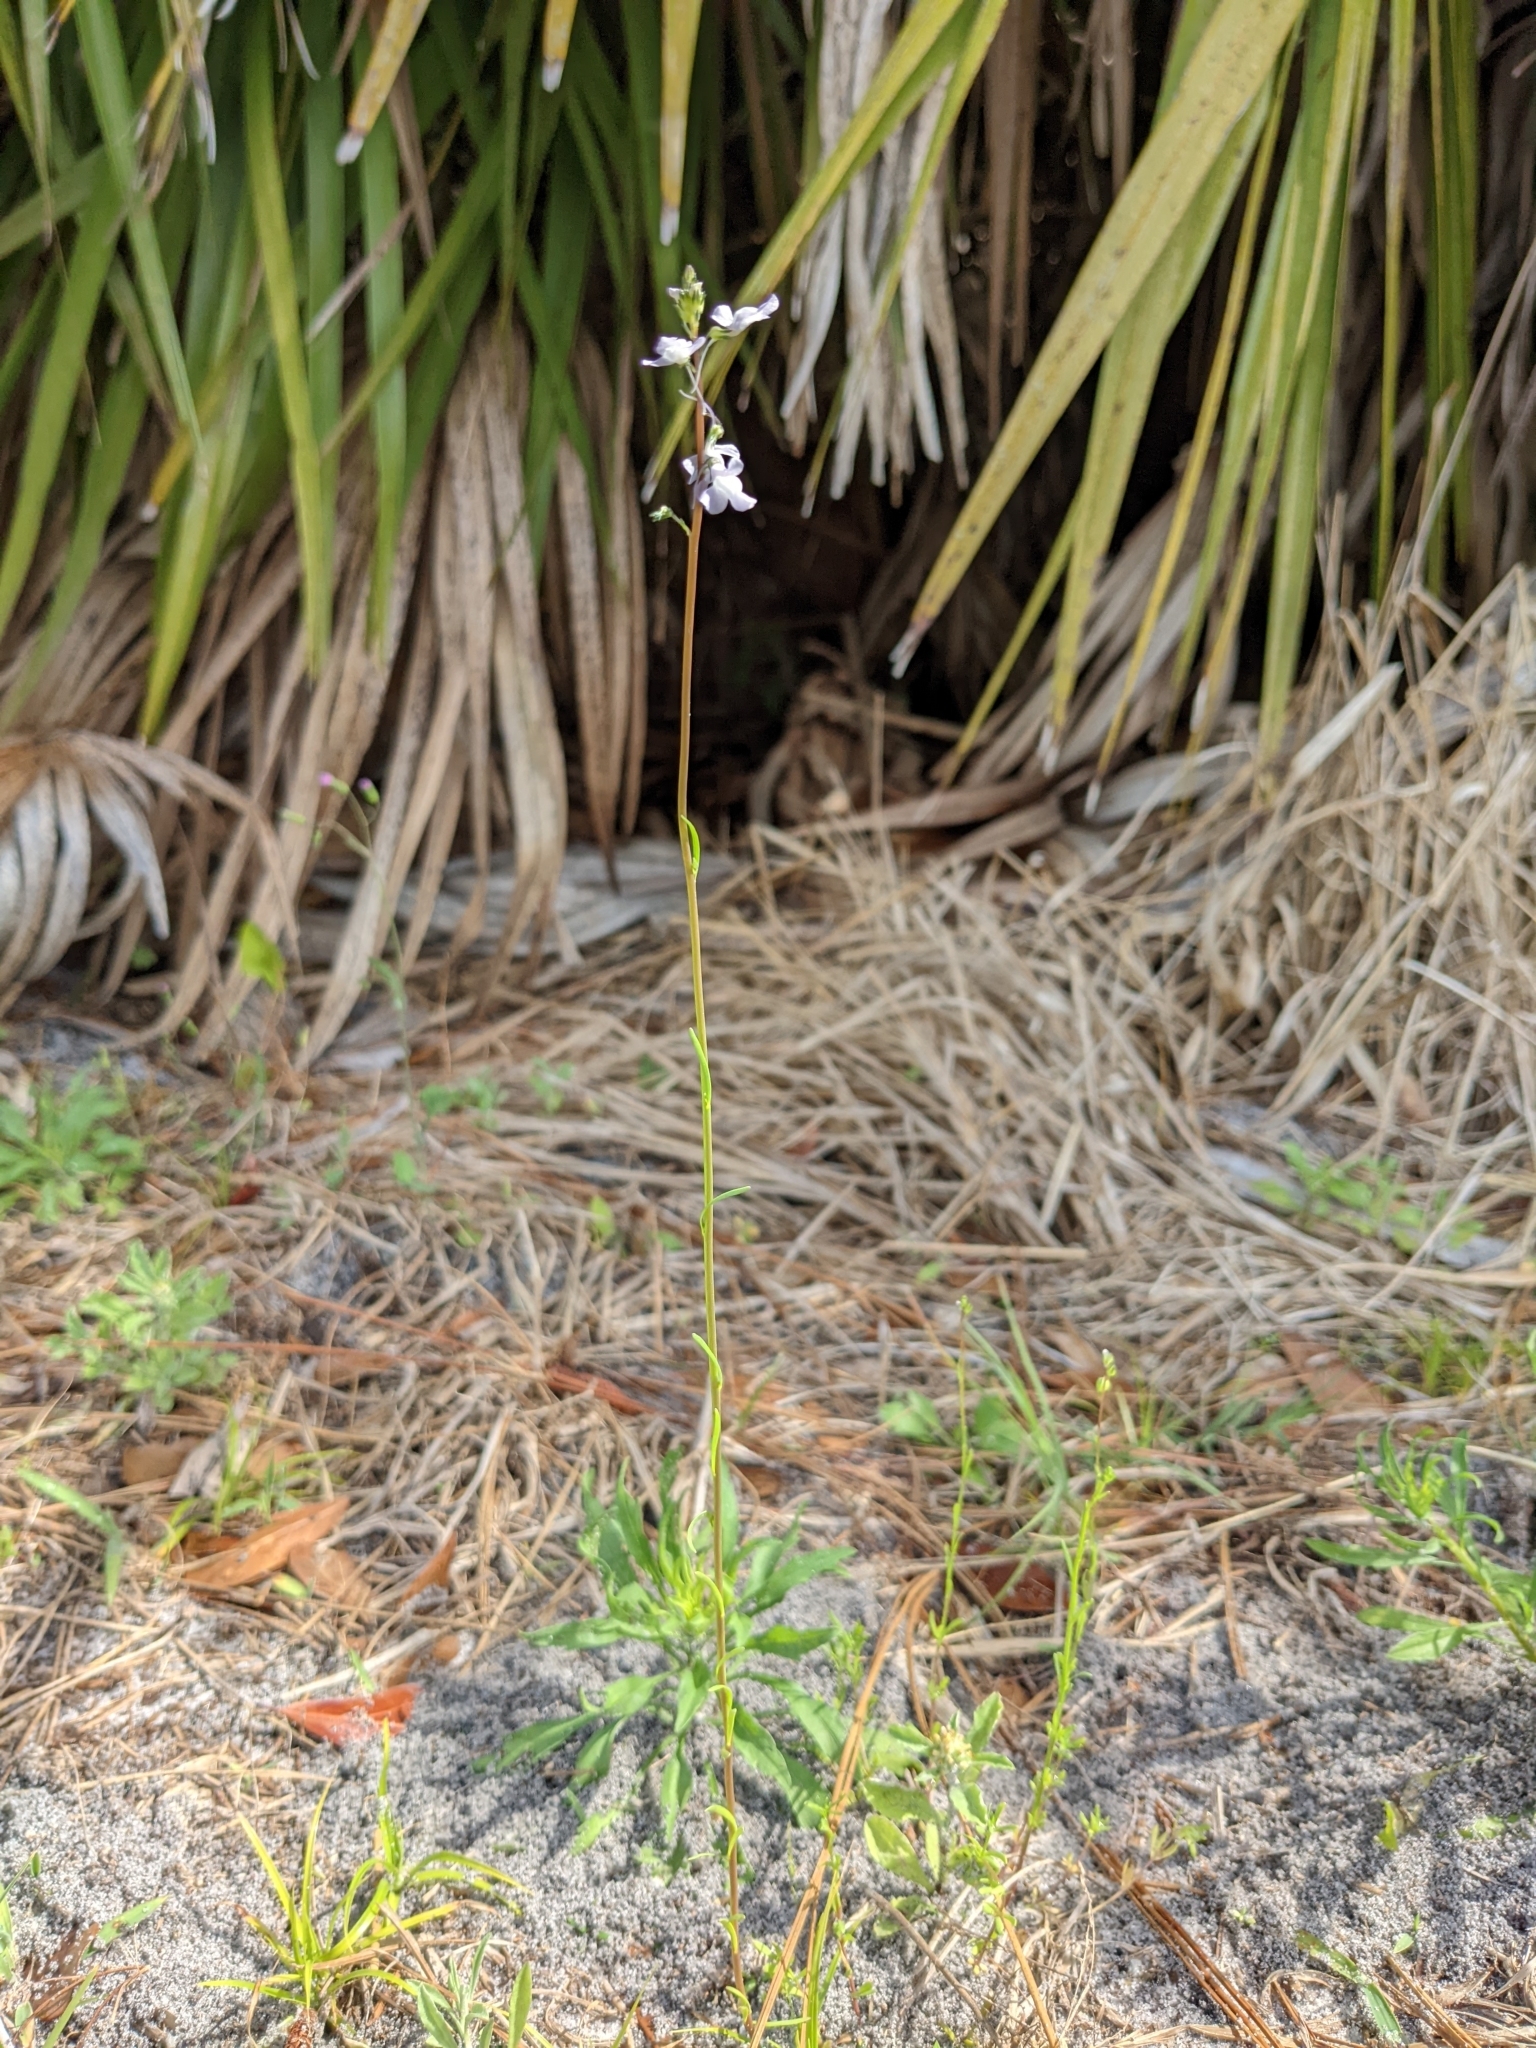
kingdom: Plantae
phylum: Tracheophyta
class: Magnoliopsida
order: Lamiales
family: Plantaginaceae
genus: Nuttallanthus
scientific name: Nuttallanthus canadensis
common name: Blue toadflax
